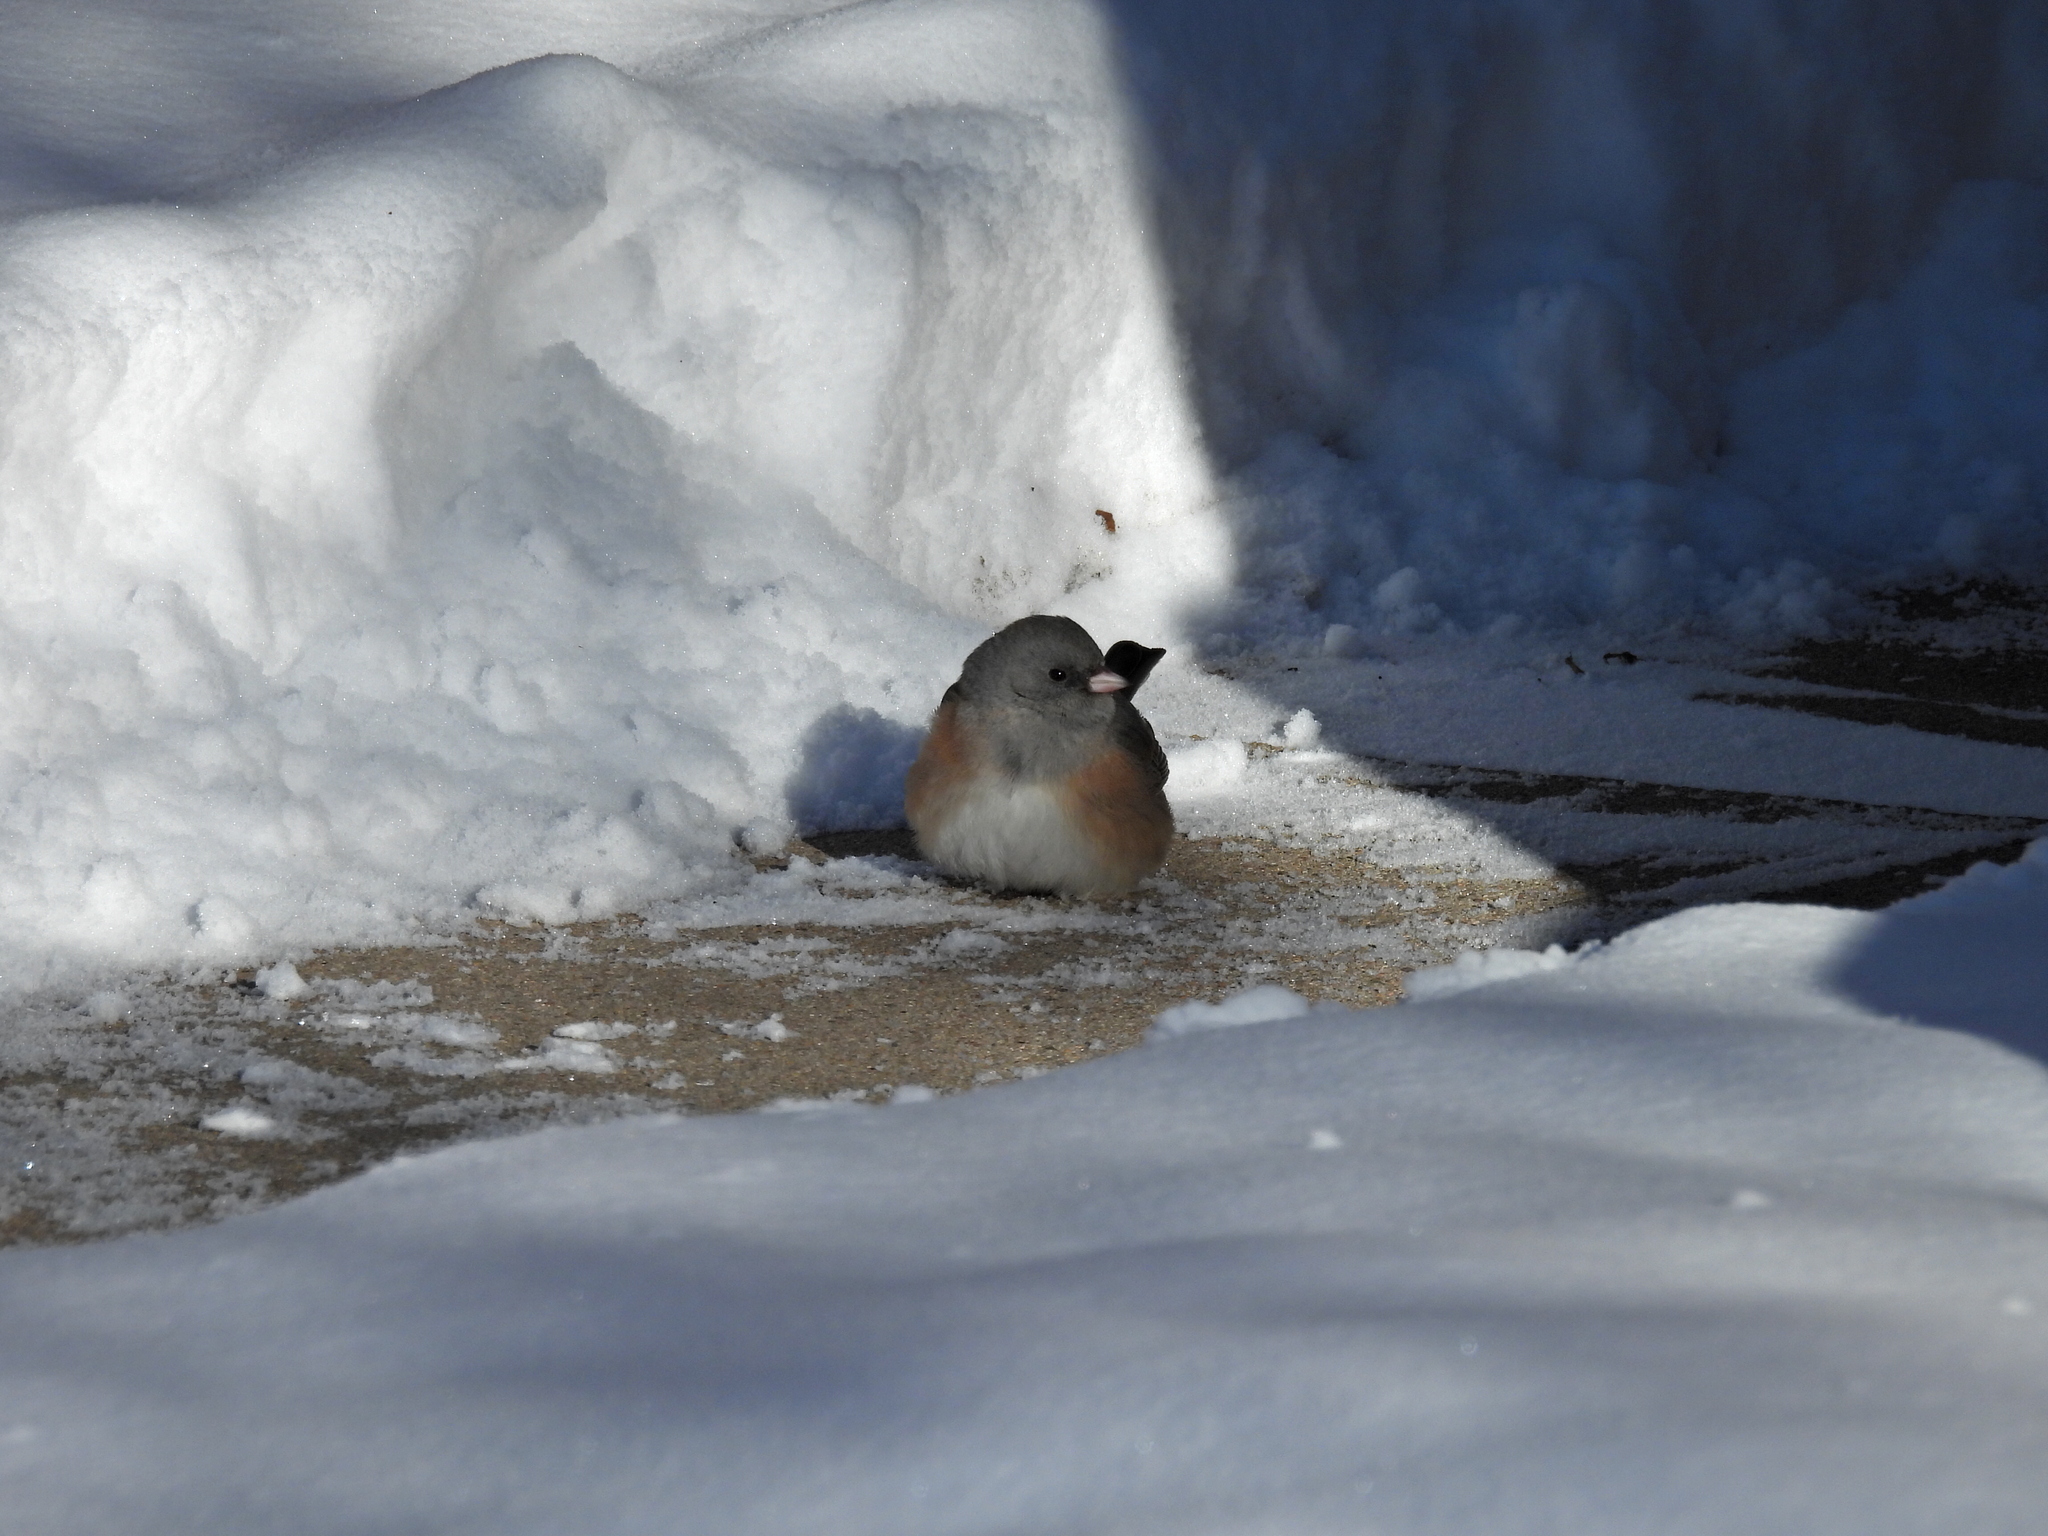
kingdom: Animalia
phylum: Chordata
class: Aves
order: Passeriformes
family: Passerellidae
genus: Junco
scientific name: Junco hyemalis
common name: Dark-eyed junco
